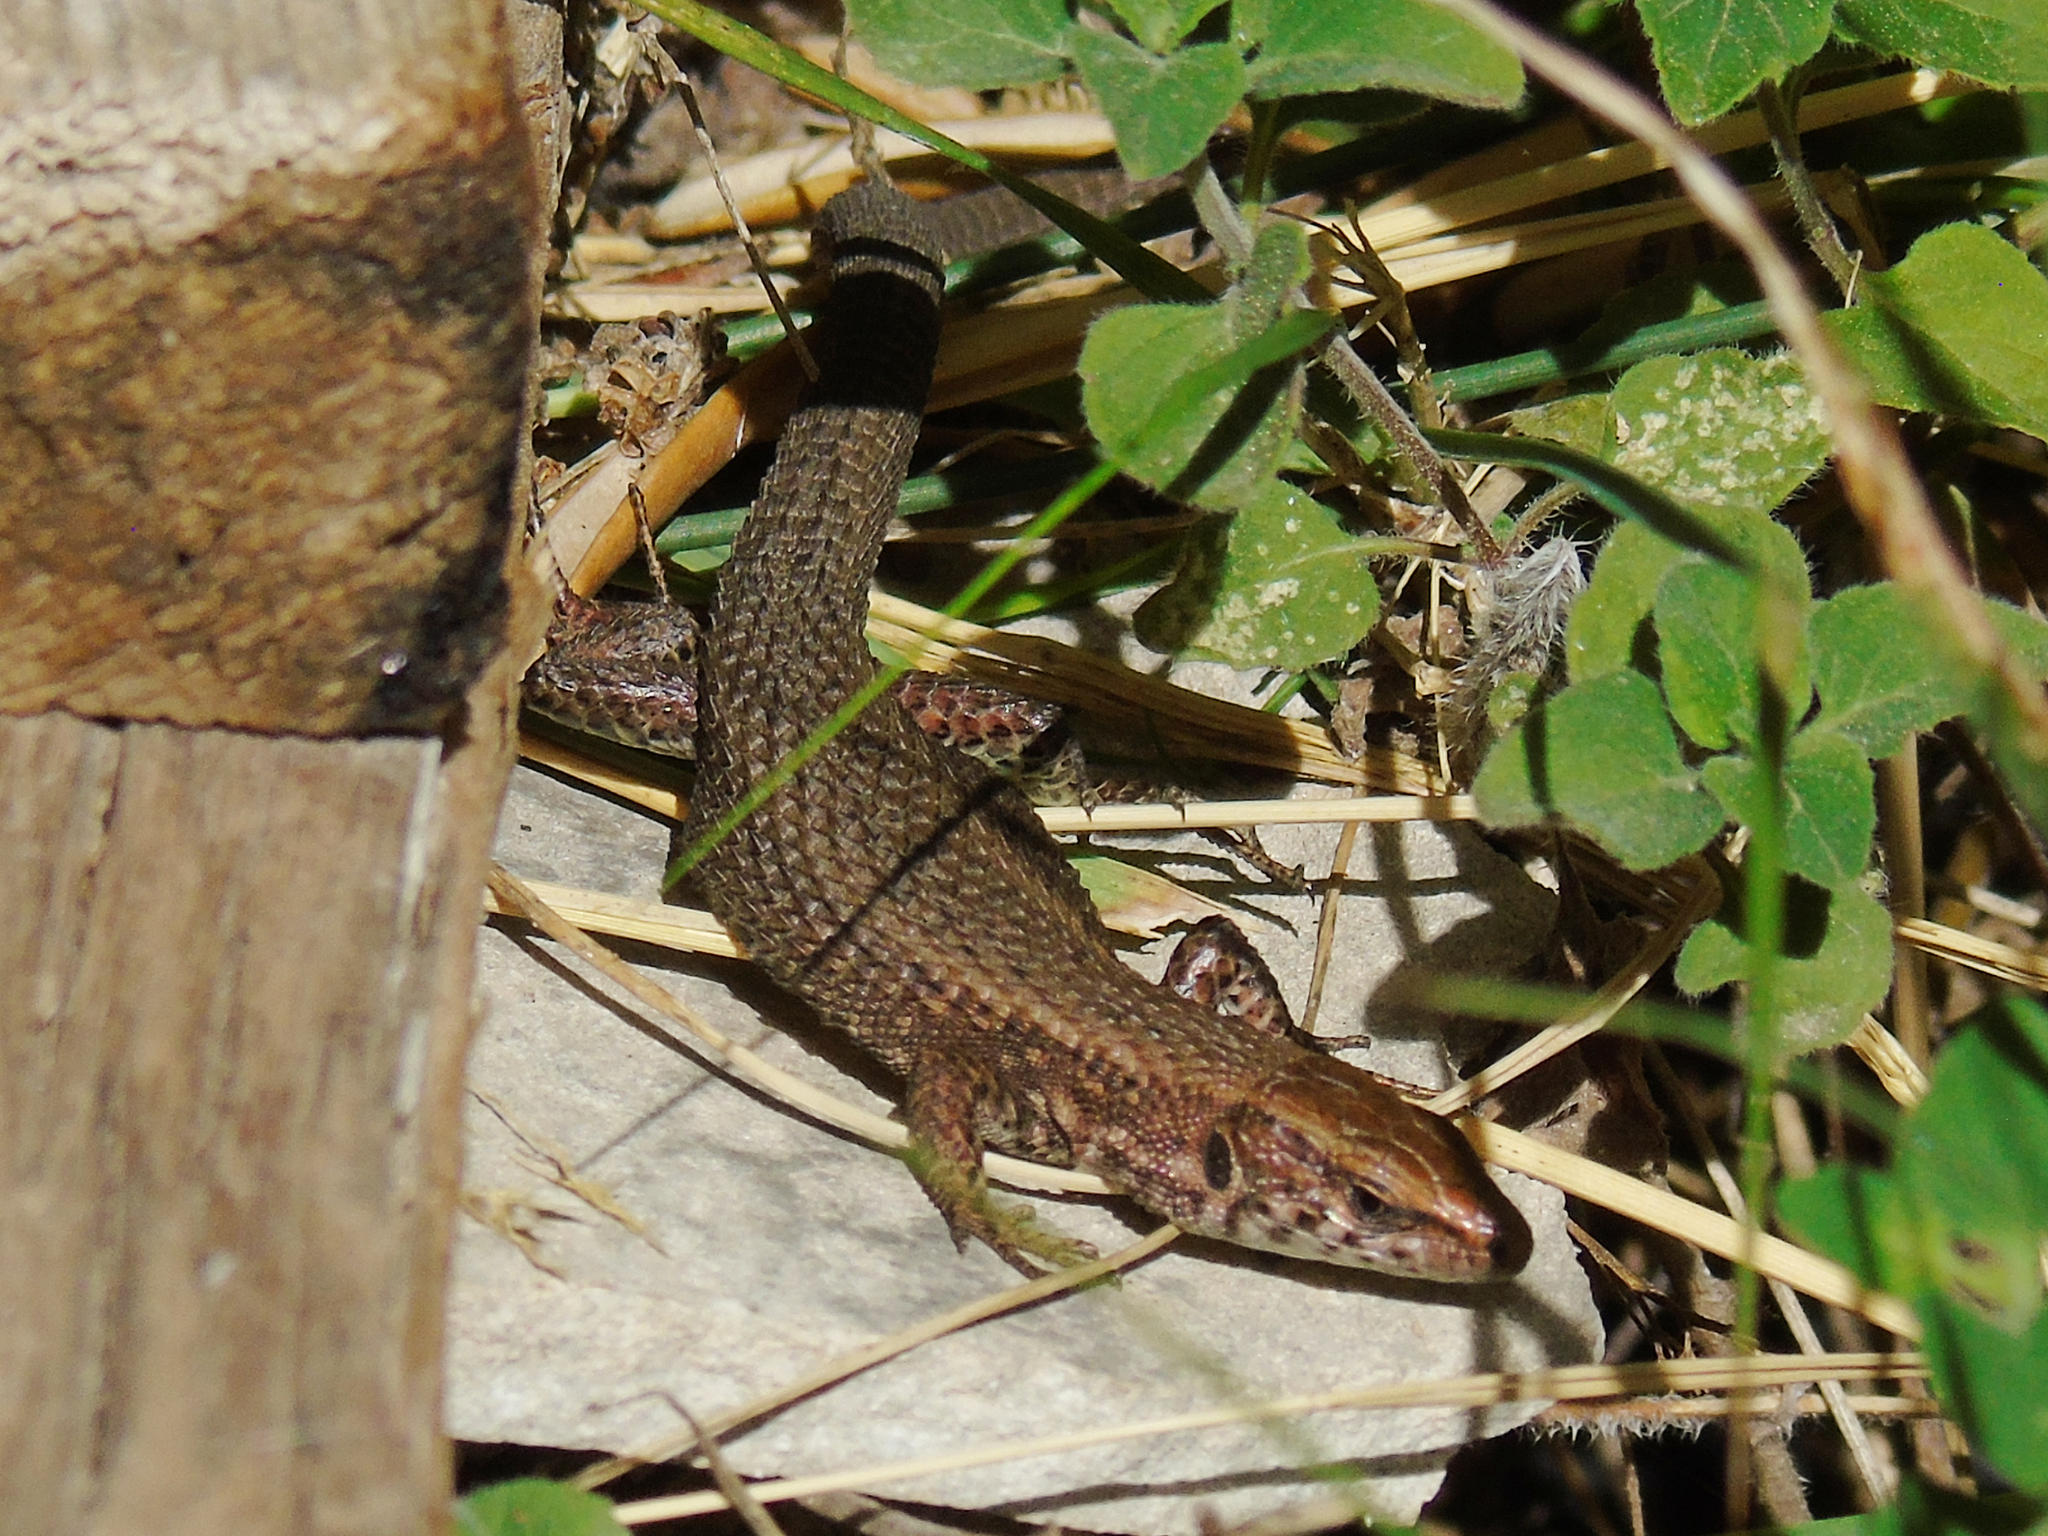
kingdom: Animalia
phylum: Chordata
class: Squamata
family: Lacertidae
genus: Algyroides
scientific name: Algyroides moreoticus
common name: Greek algyroides
